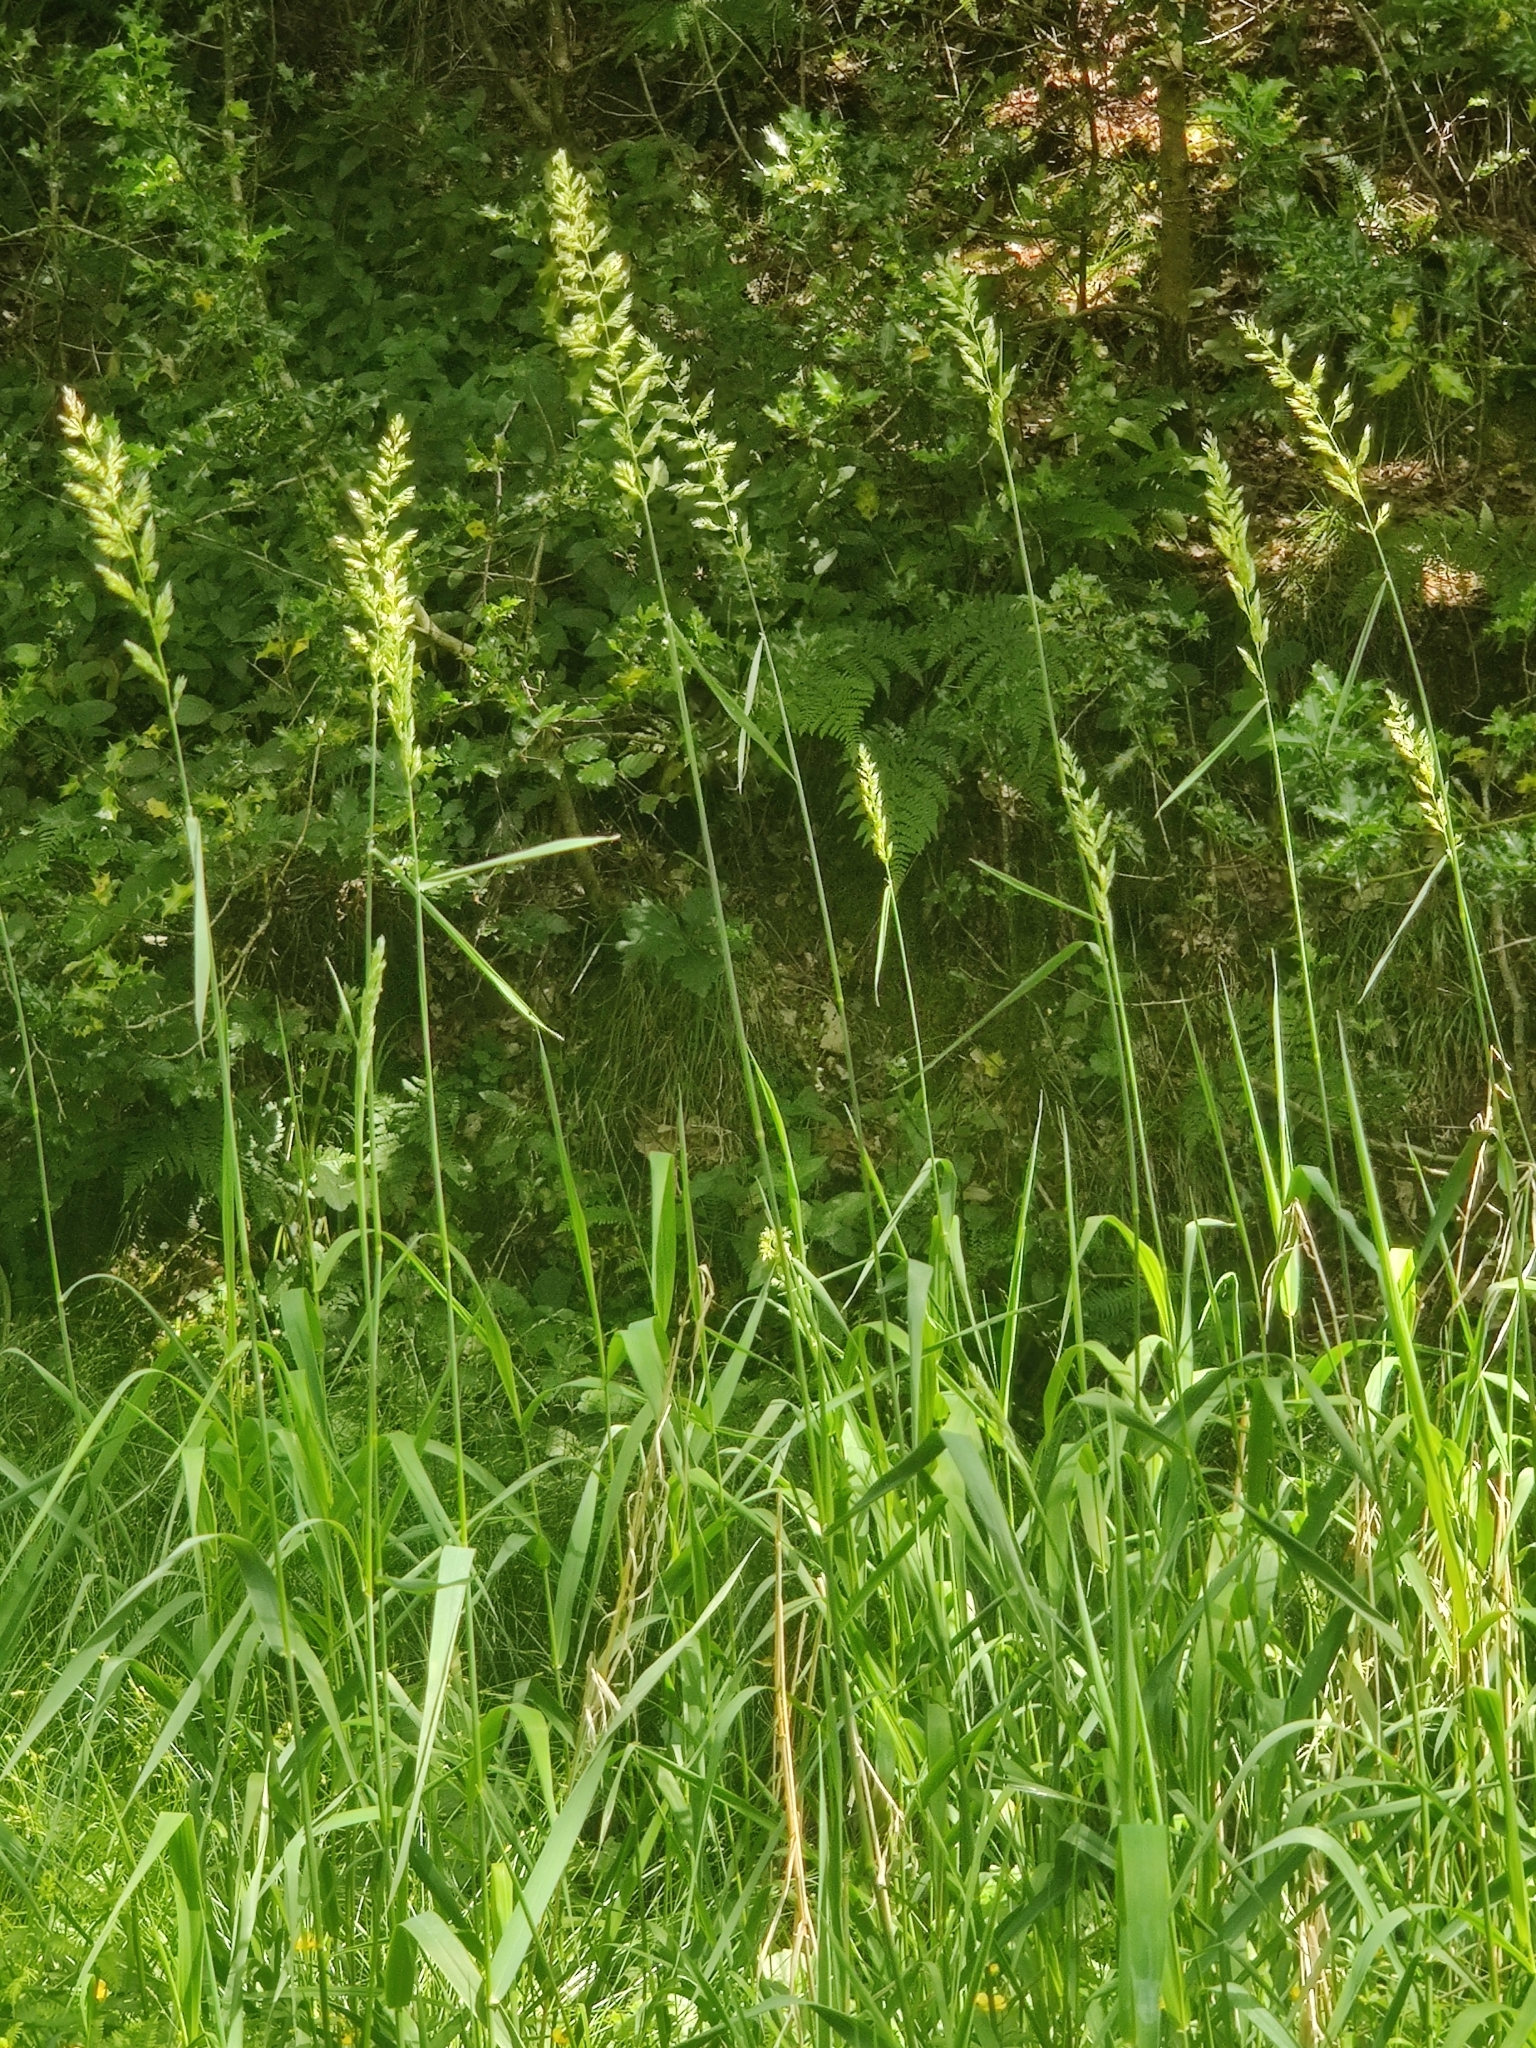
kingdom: Plantae
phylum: Tracheophyta
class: Liliopsida
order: Poales
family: Poaceae
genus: Phalaris
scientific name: Phalaris arundinacea
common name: Reed canary-grass
